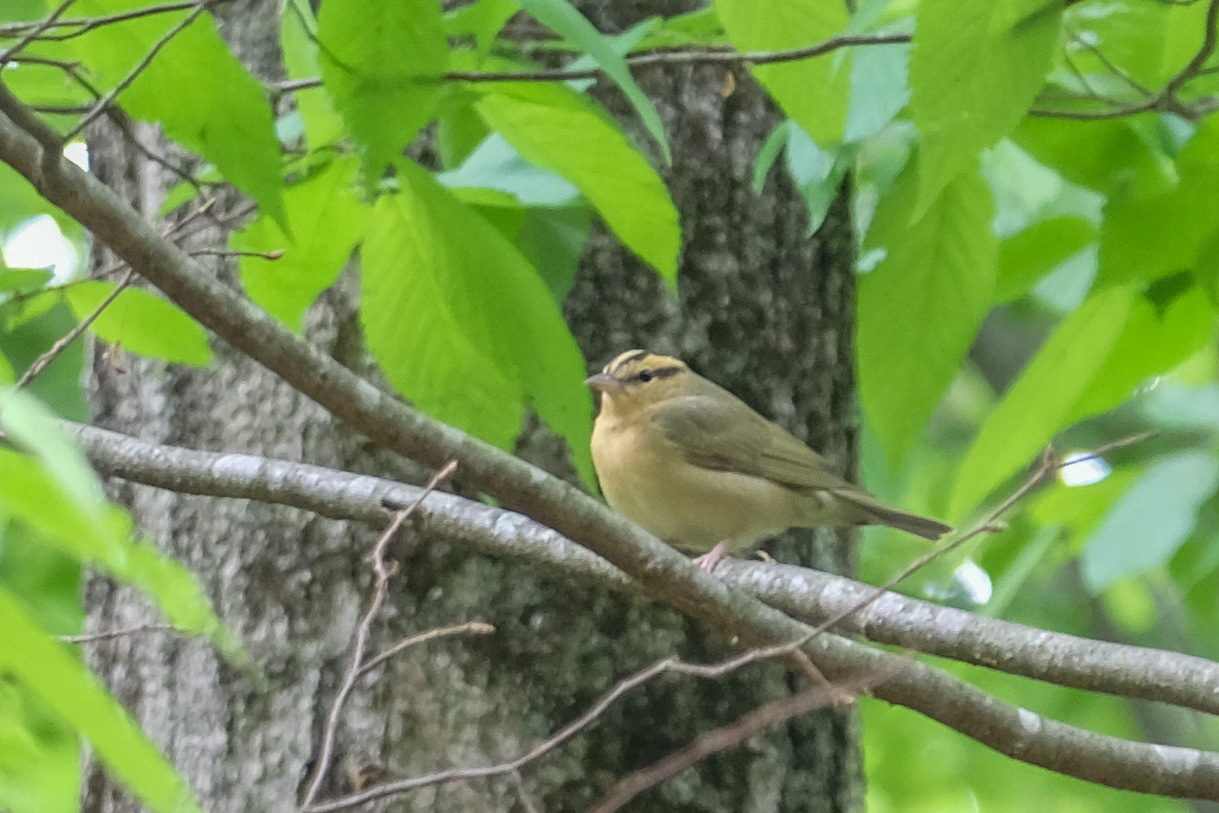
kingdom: Animalia
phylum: Chordata
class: Aves
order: Passeriformes
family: Parulidae
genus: Helmitheros
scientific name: Helmitheros vermivorum
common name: Worm-eating warbler
